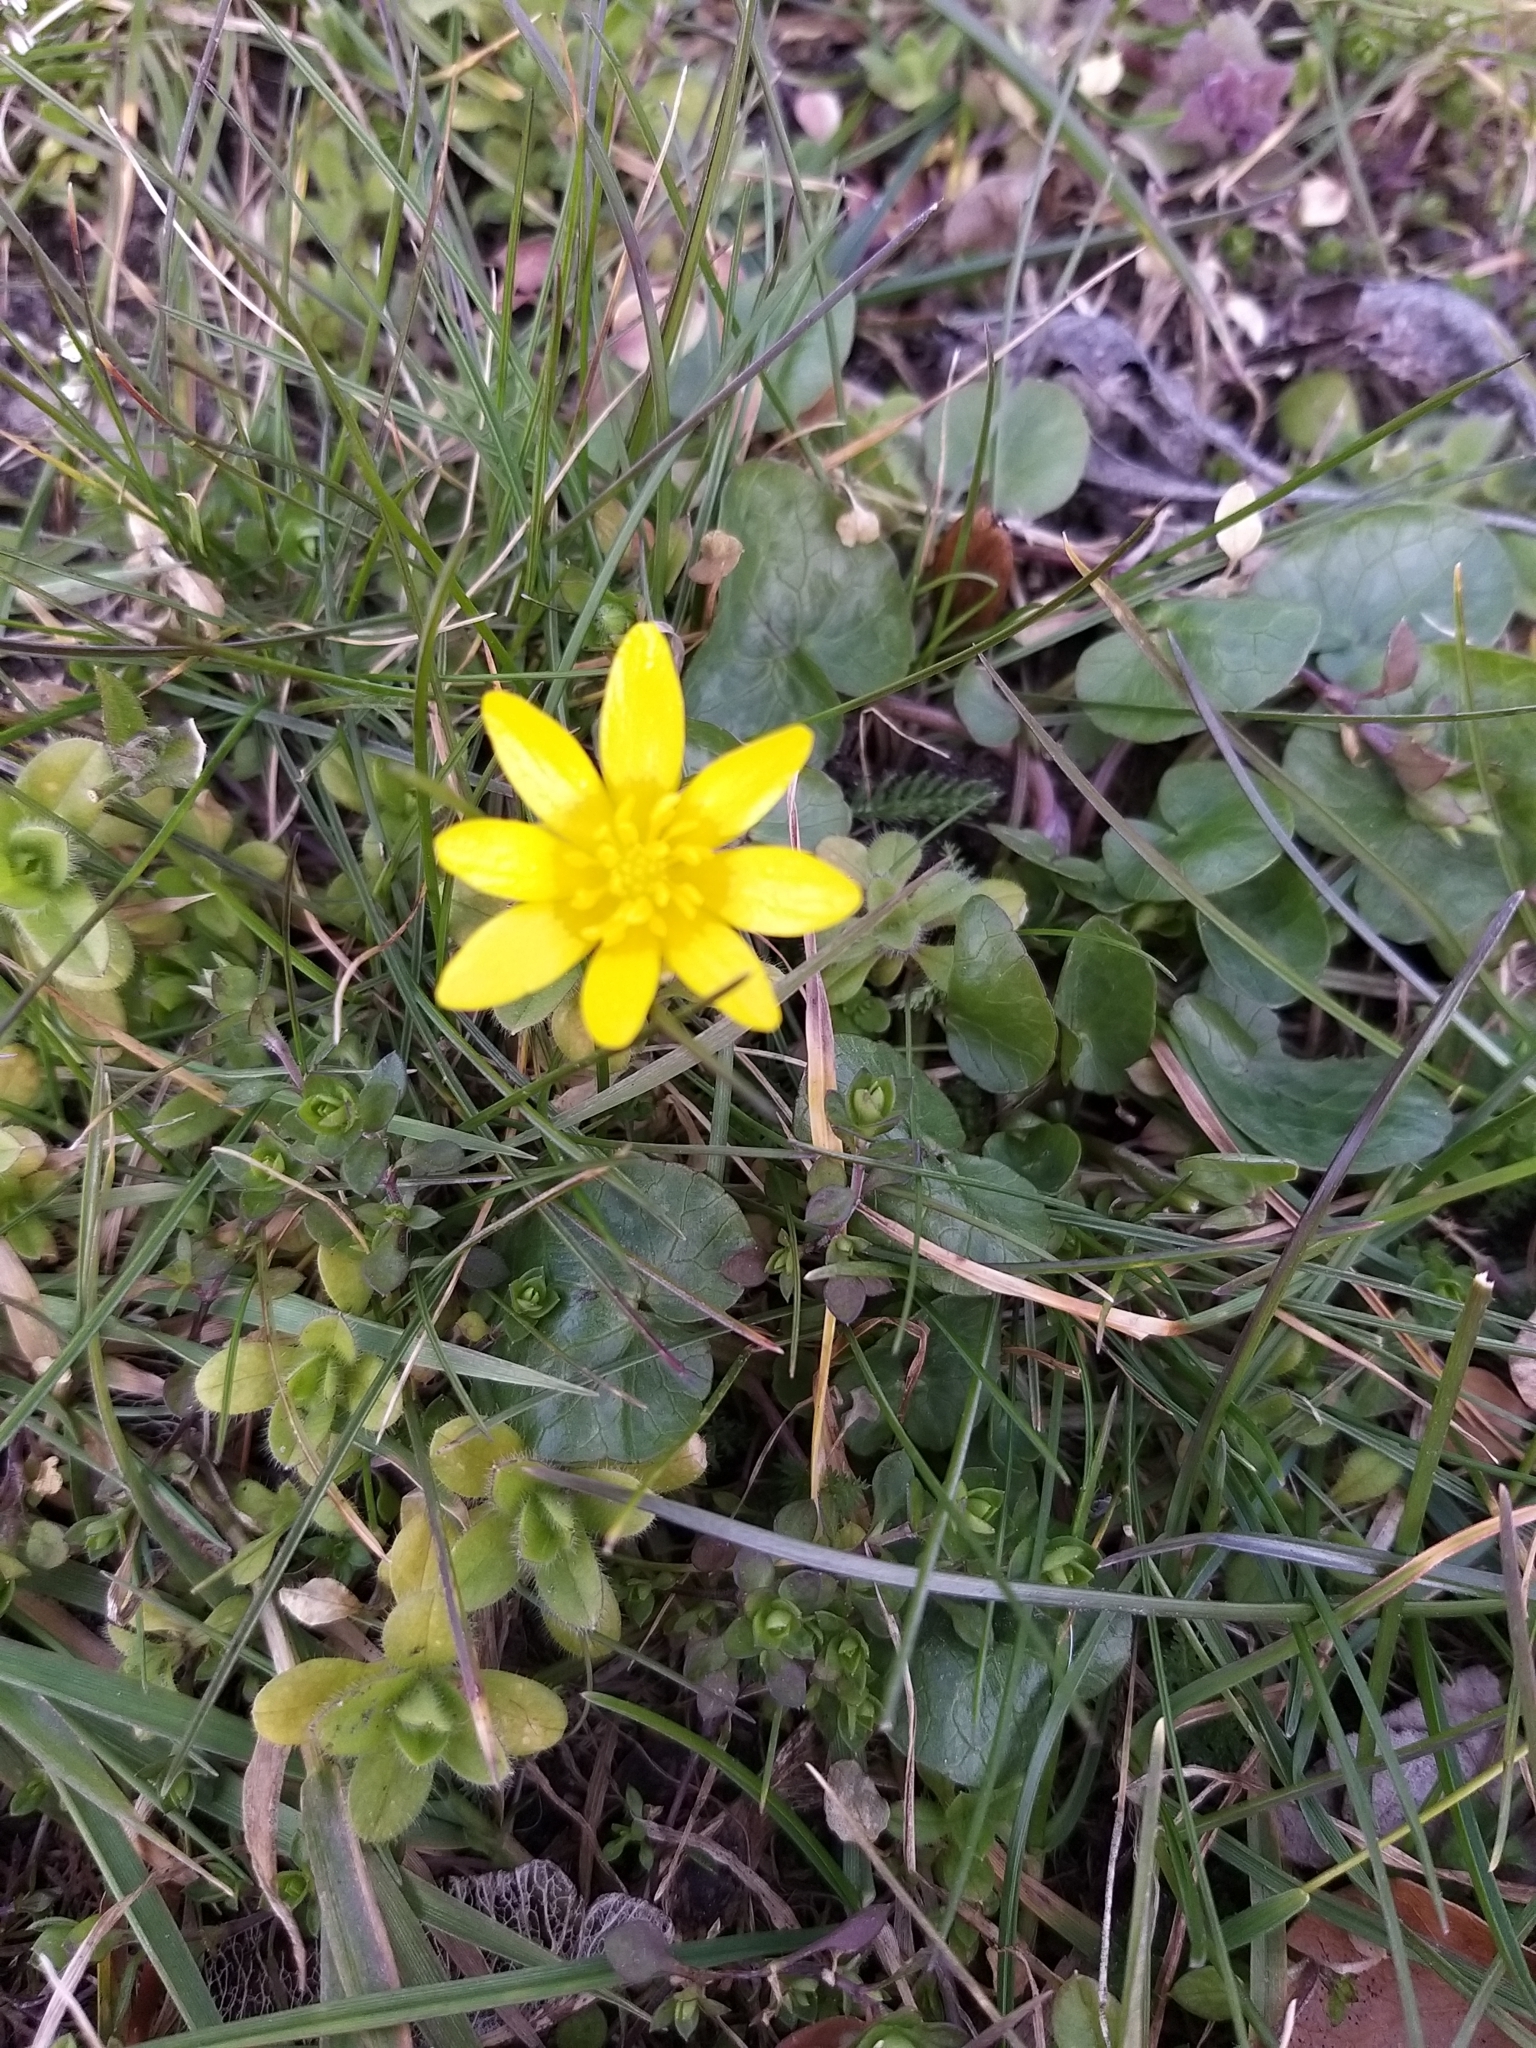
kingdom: Plantae
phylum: Tracheophyta
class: Magnoliopsida
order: Ranunculales
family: Ranunculaceae
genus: Ficaria
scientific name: Ficaria verna
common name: Lesser celandine
